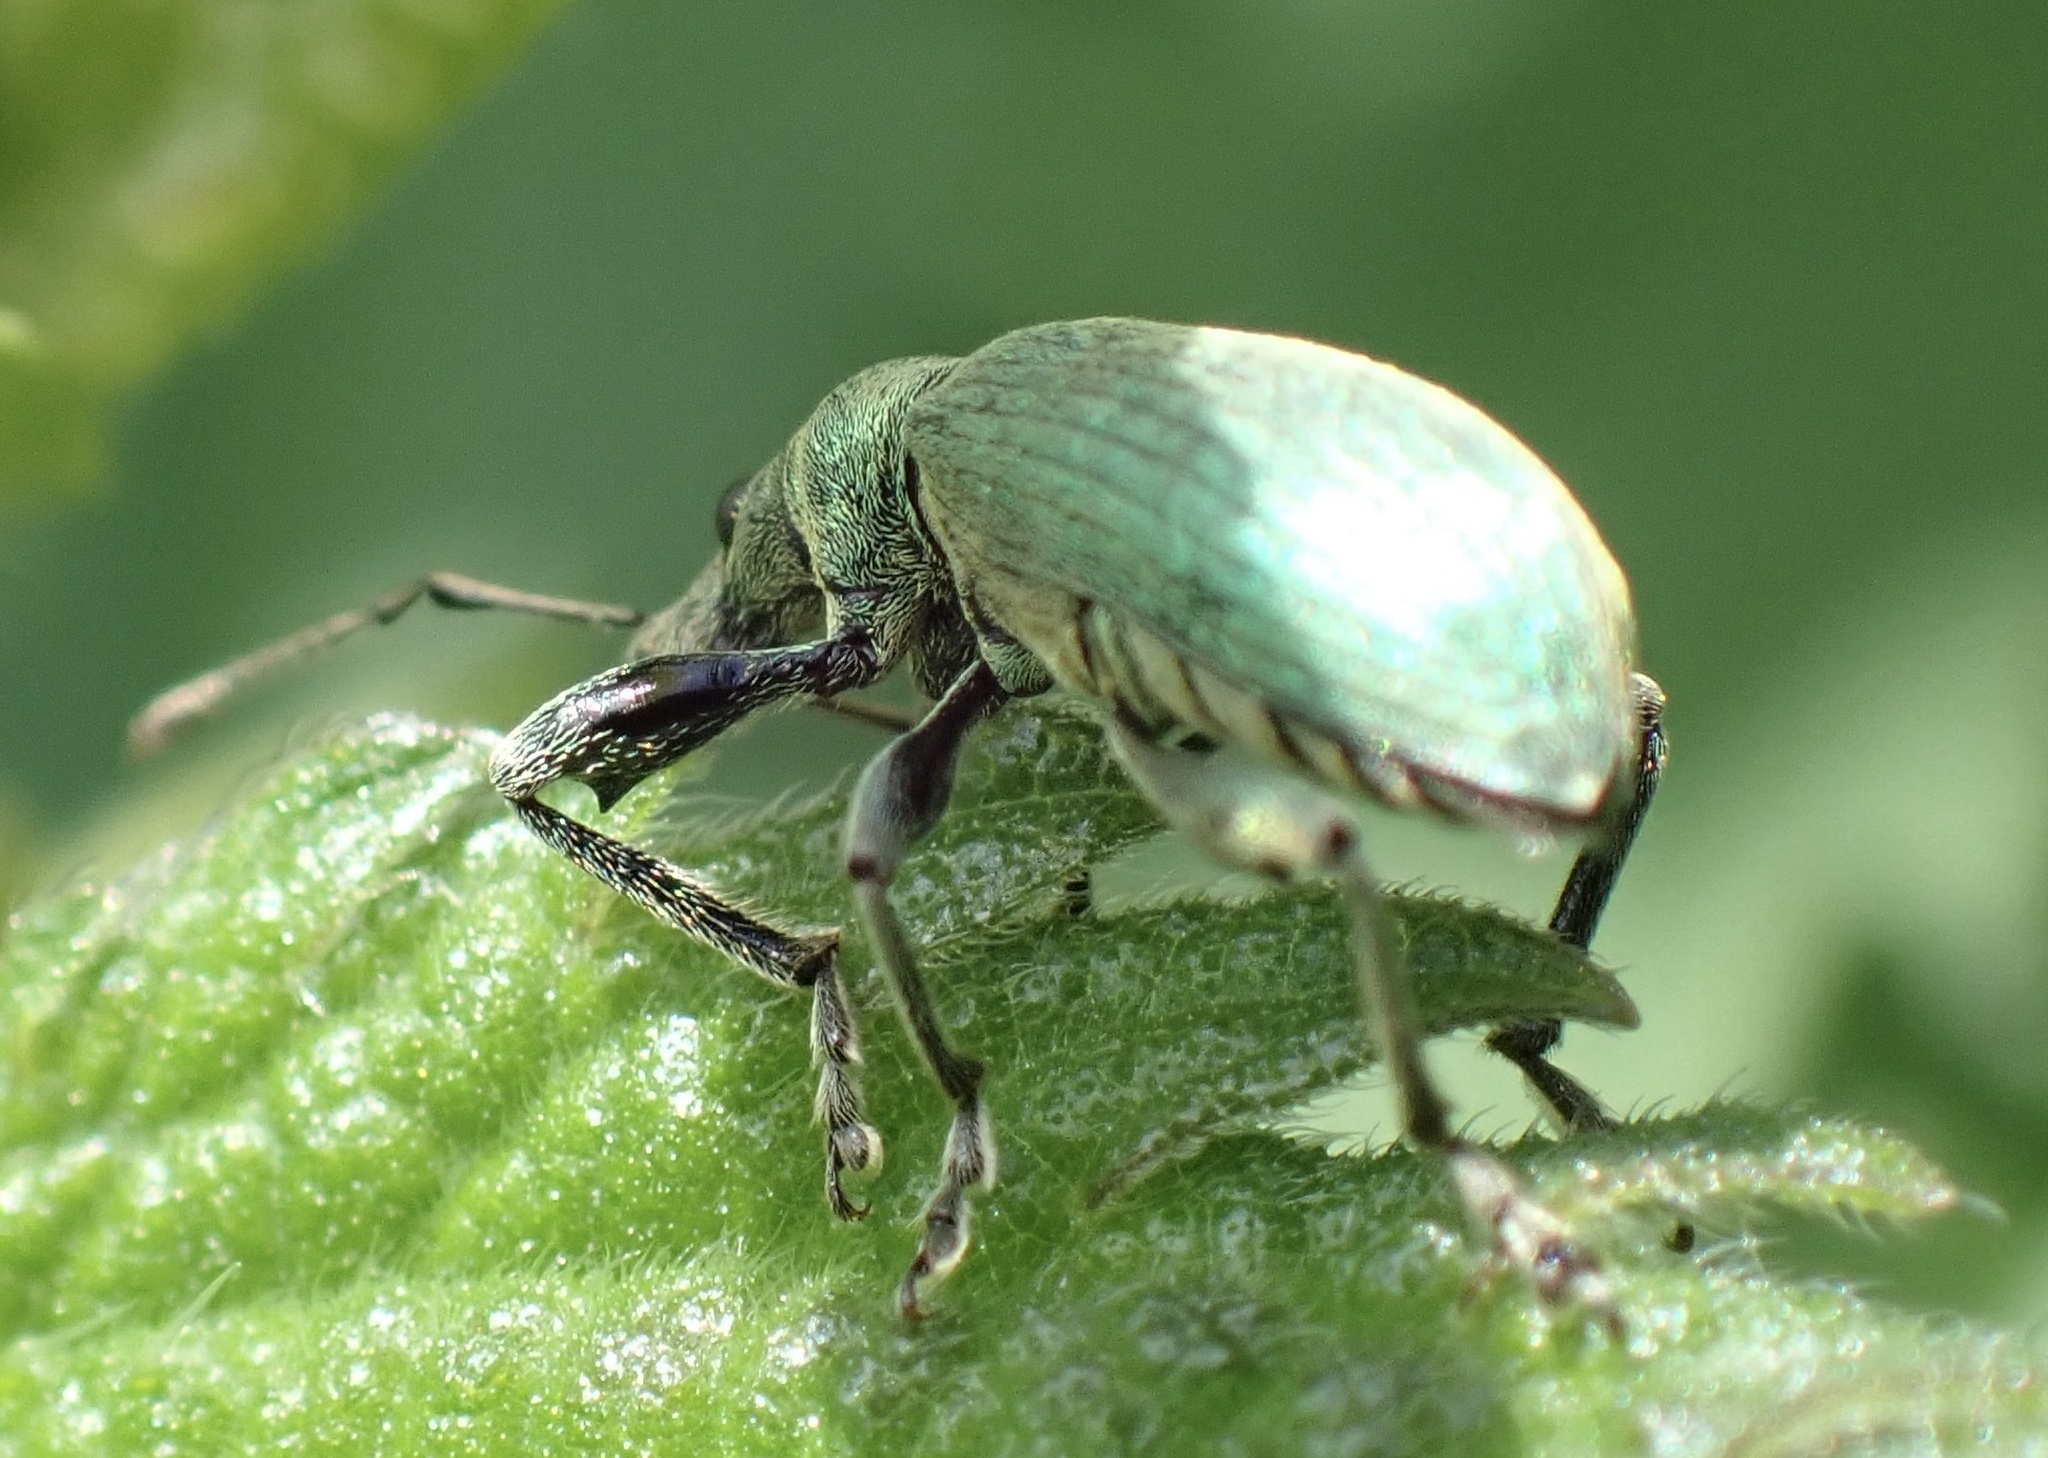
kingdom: Animalia
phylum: Arthropoda
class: Insecta
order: Coleoptera
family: Curculionidae
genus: Phyllobius
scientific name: Phyllobius pomaceus
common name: Green nettle weevil
